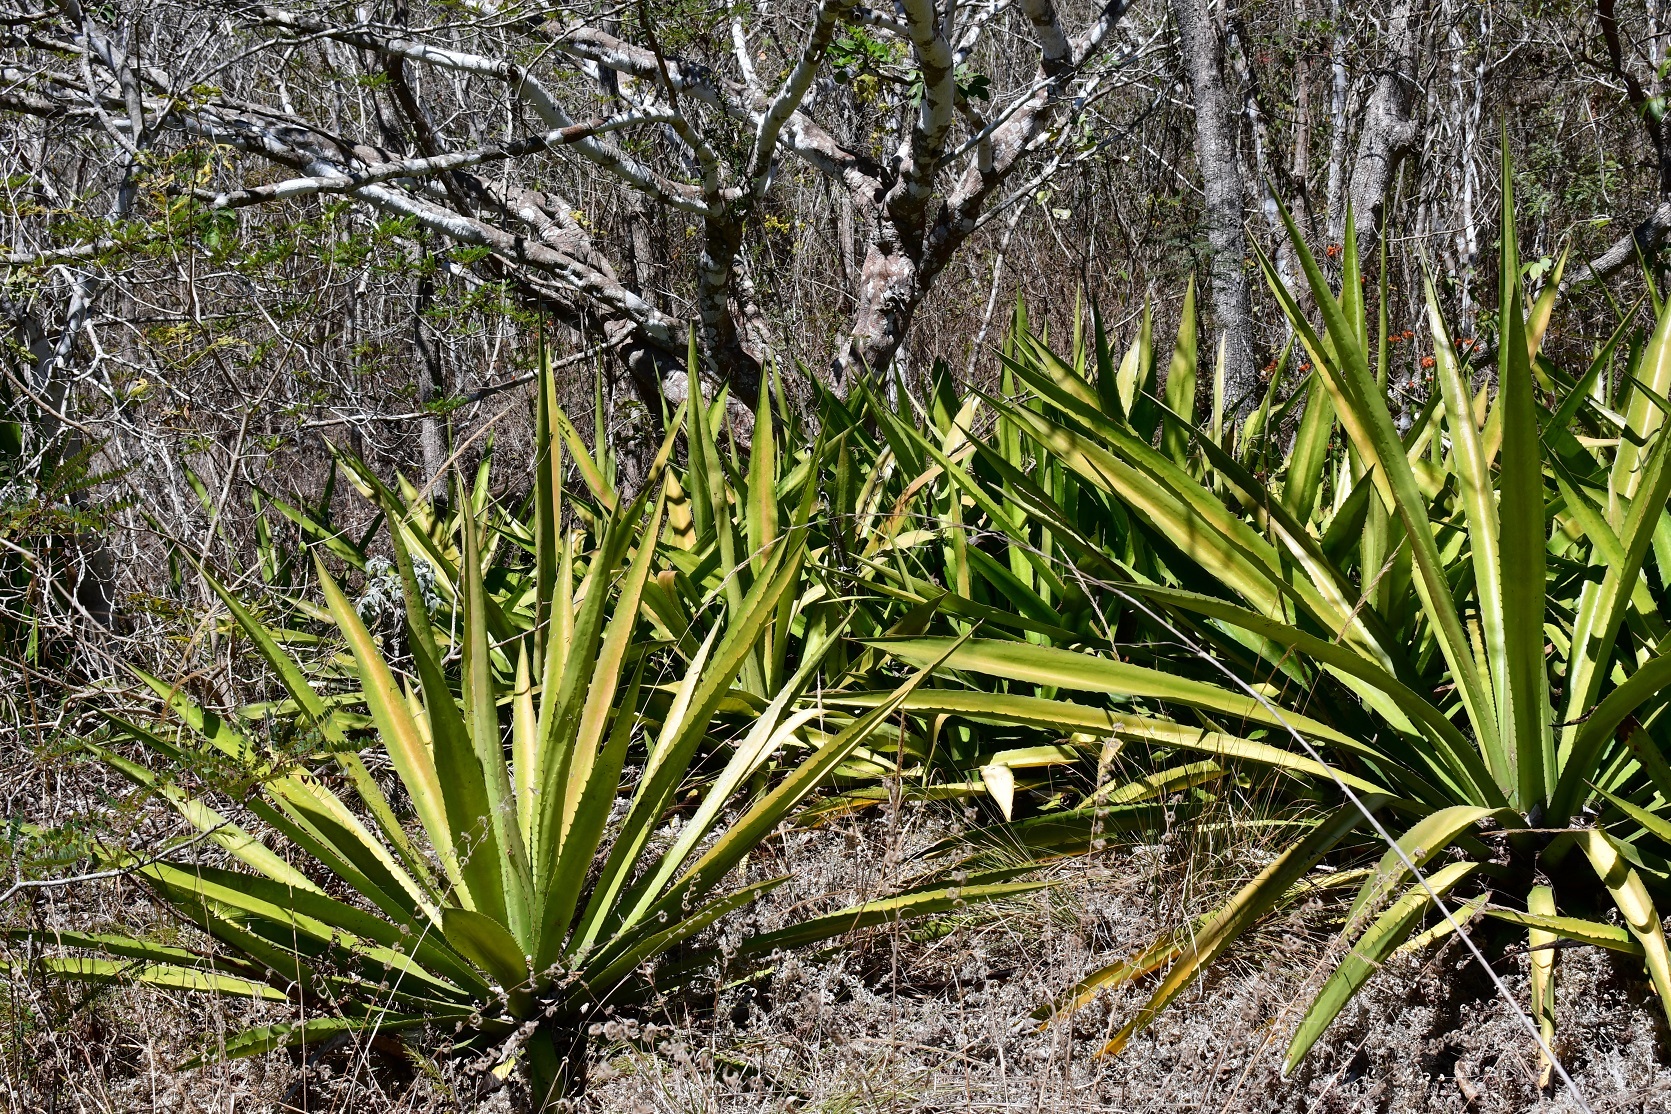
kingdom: Plantae
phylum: Tracheophyta
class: Liliopsida
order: Asparagales
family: Asparagaceae
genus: Furcraea
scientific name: Furcraea cabuya
